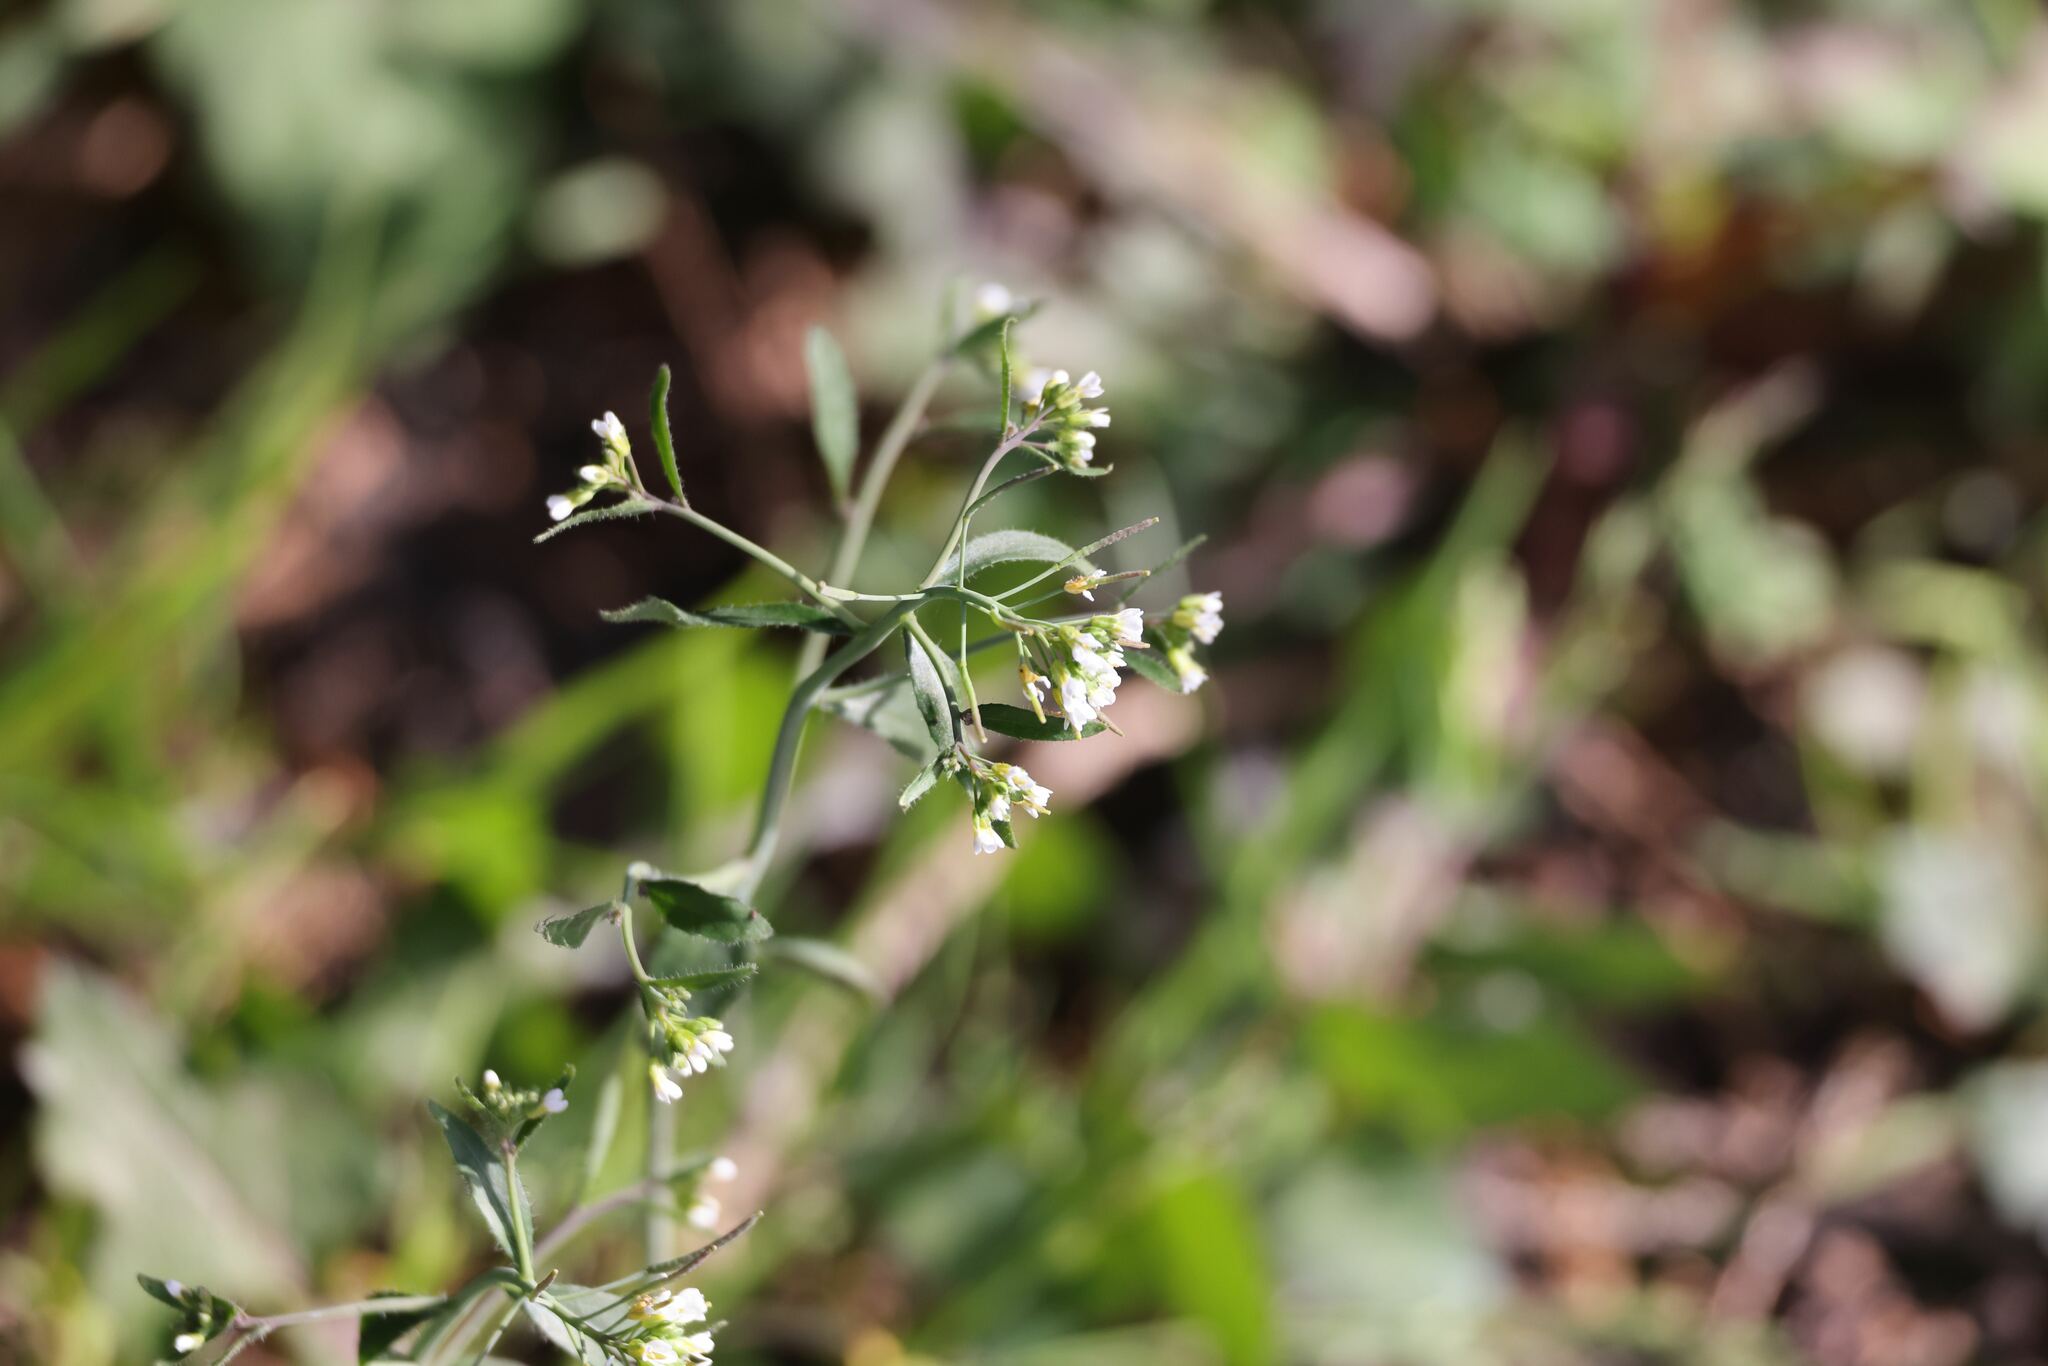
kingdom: Plantae
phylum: Tracheophyta
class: Magnoliopsida
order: Brassicales
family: Brassicaceae
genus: Arabidopsis
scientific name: Arabidopsis thaliana
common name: Thale cress
